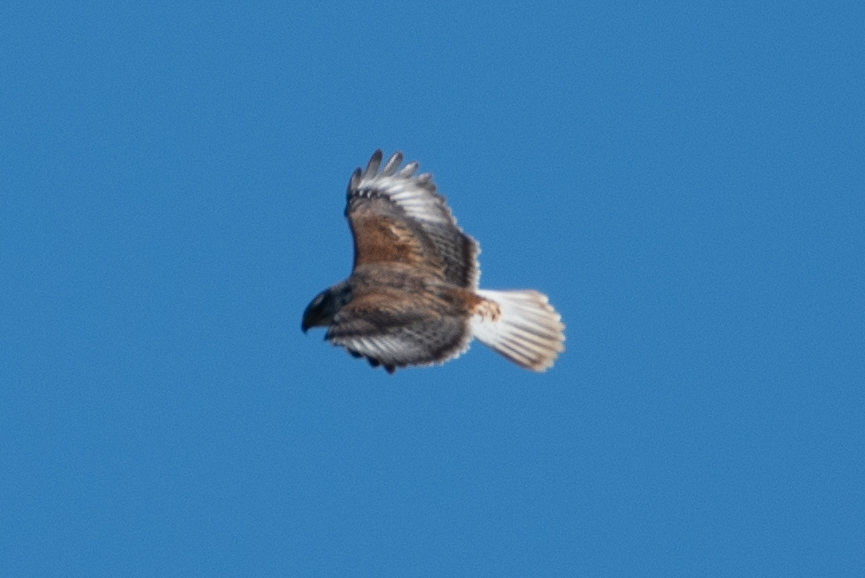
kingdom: Animalia
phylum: Chordata
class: Aves
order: Accipitriformes
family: Accipitridae
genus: Buteo
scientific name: Buteo regalis
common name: Ferruginous hawk
